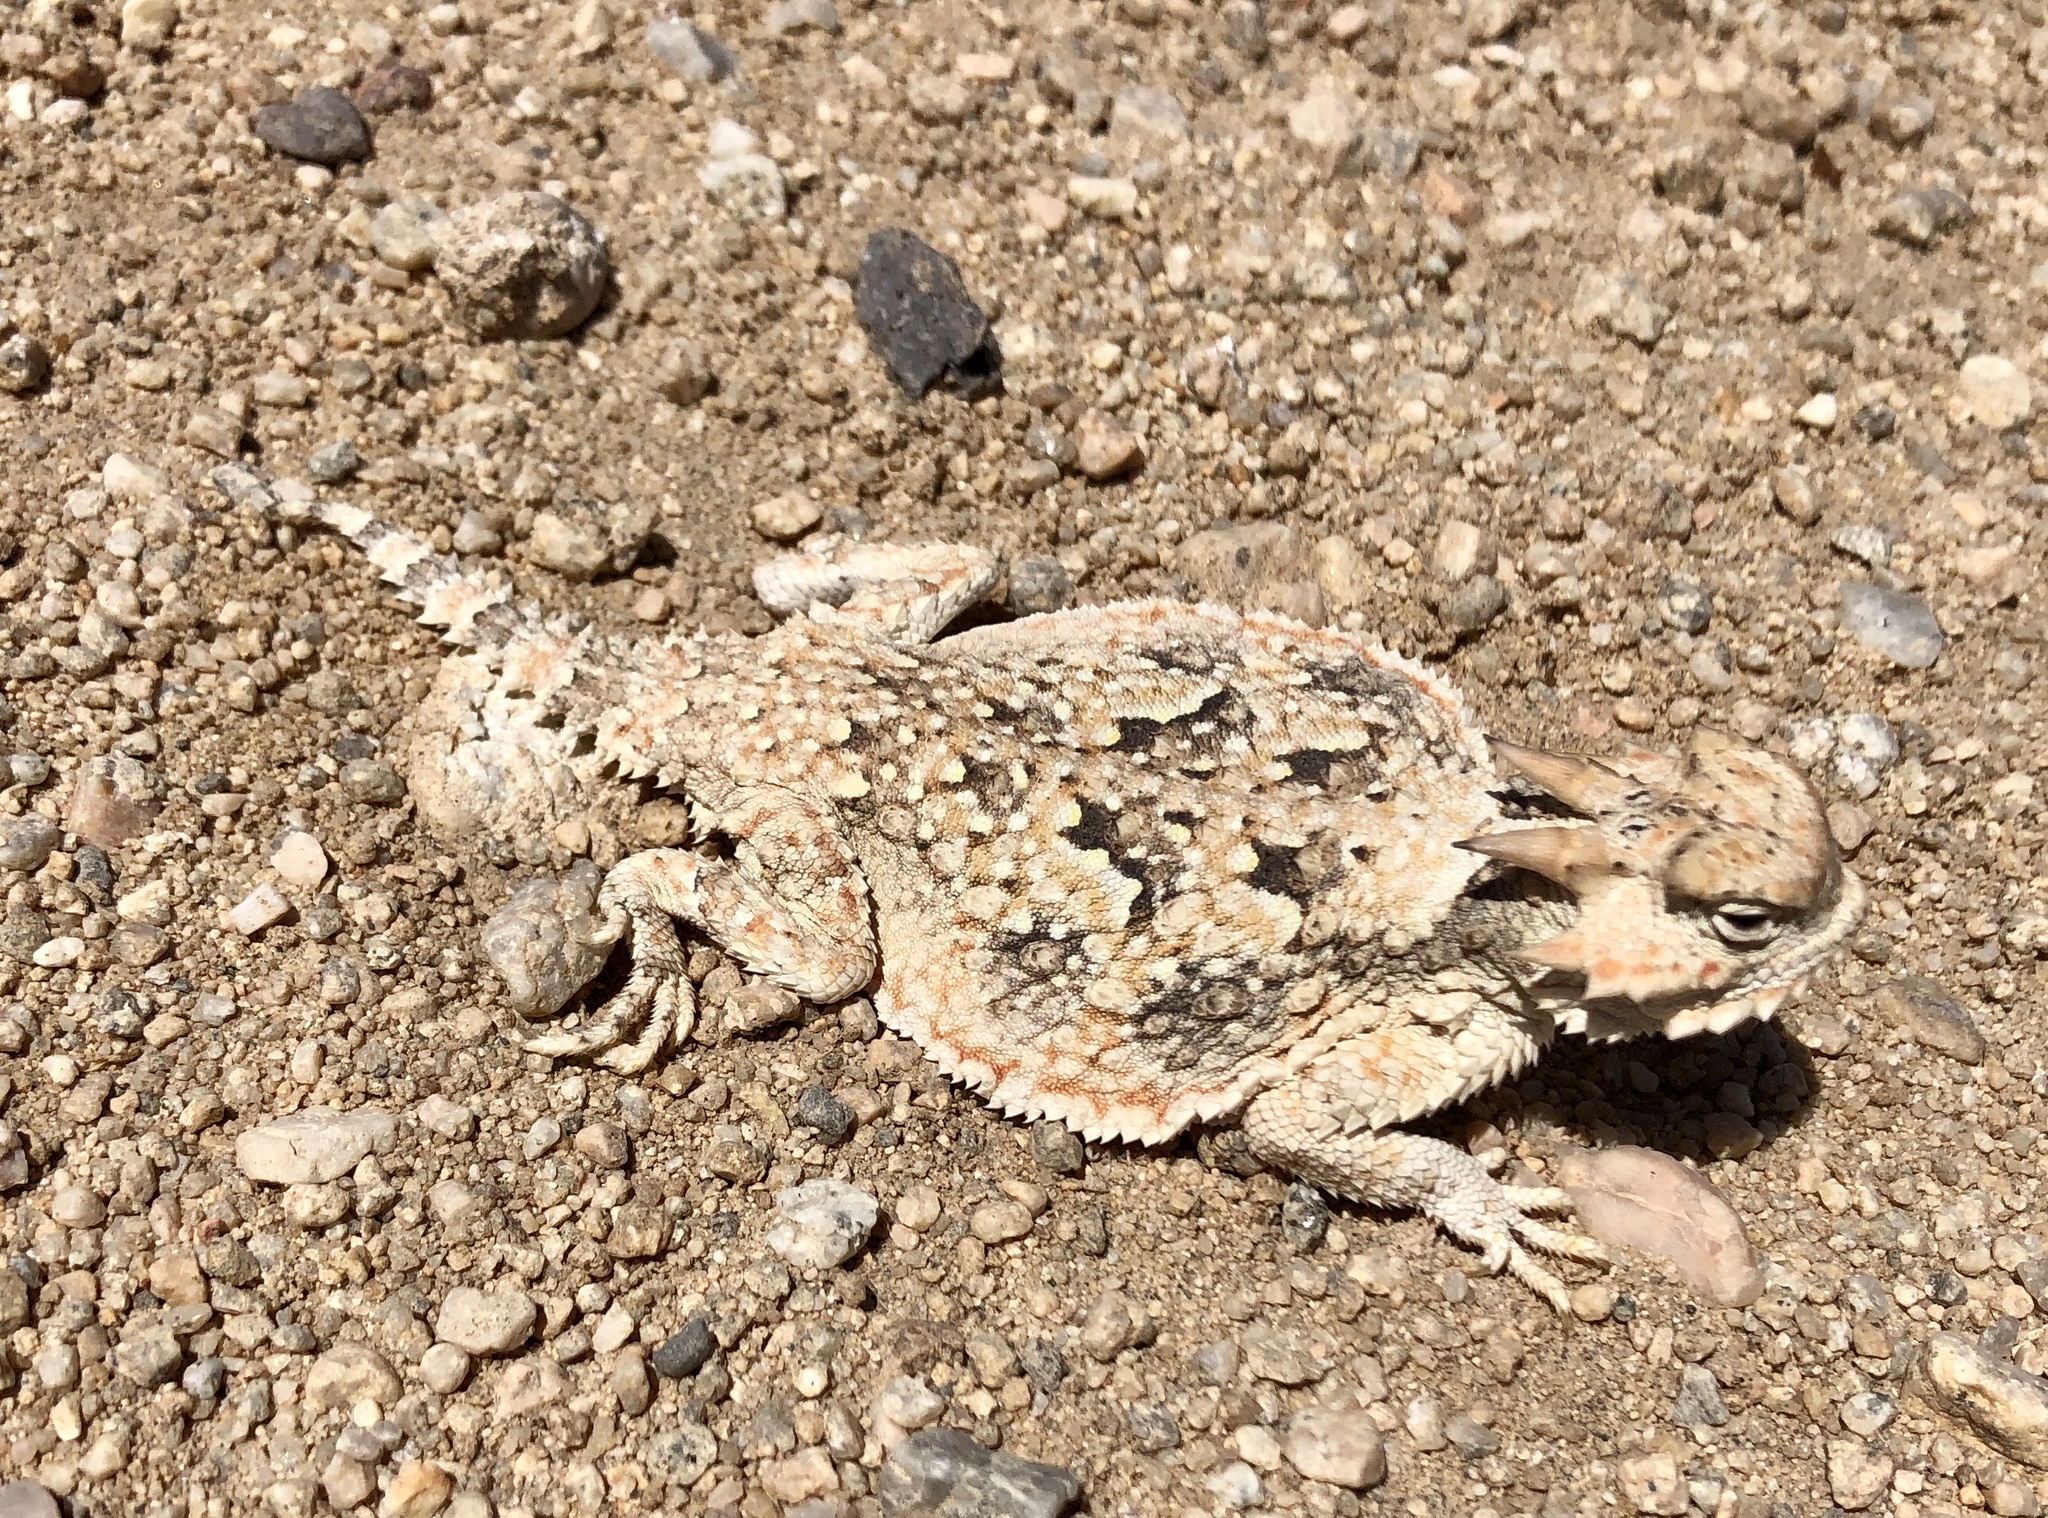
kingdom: Animalia
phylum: Chordata
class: Squamata
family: Phrynosomatidae
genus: Phrynosoma
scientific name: Phrynosoma platyrhinos
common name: Desert horned lizard
